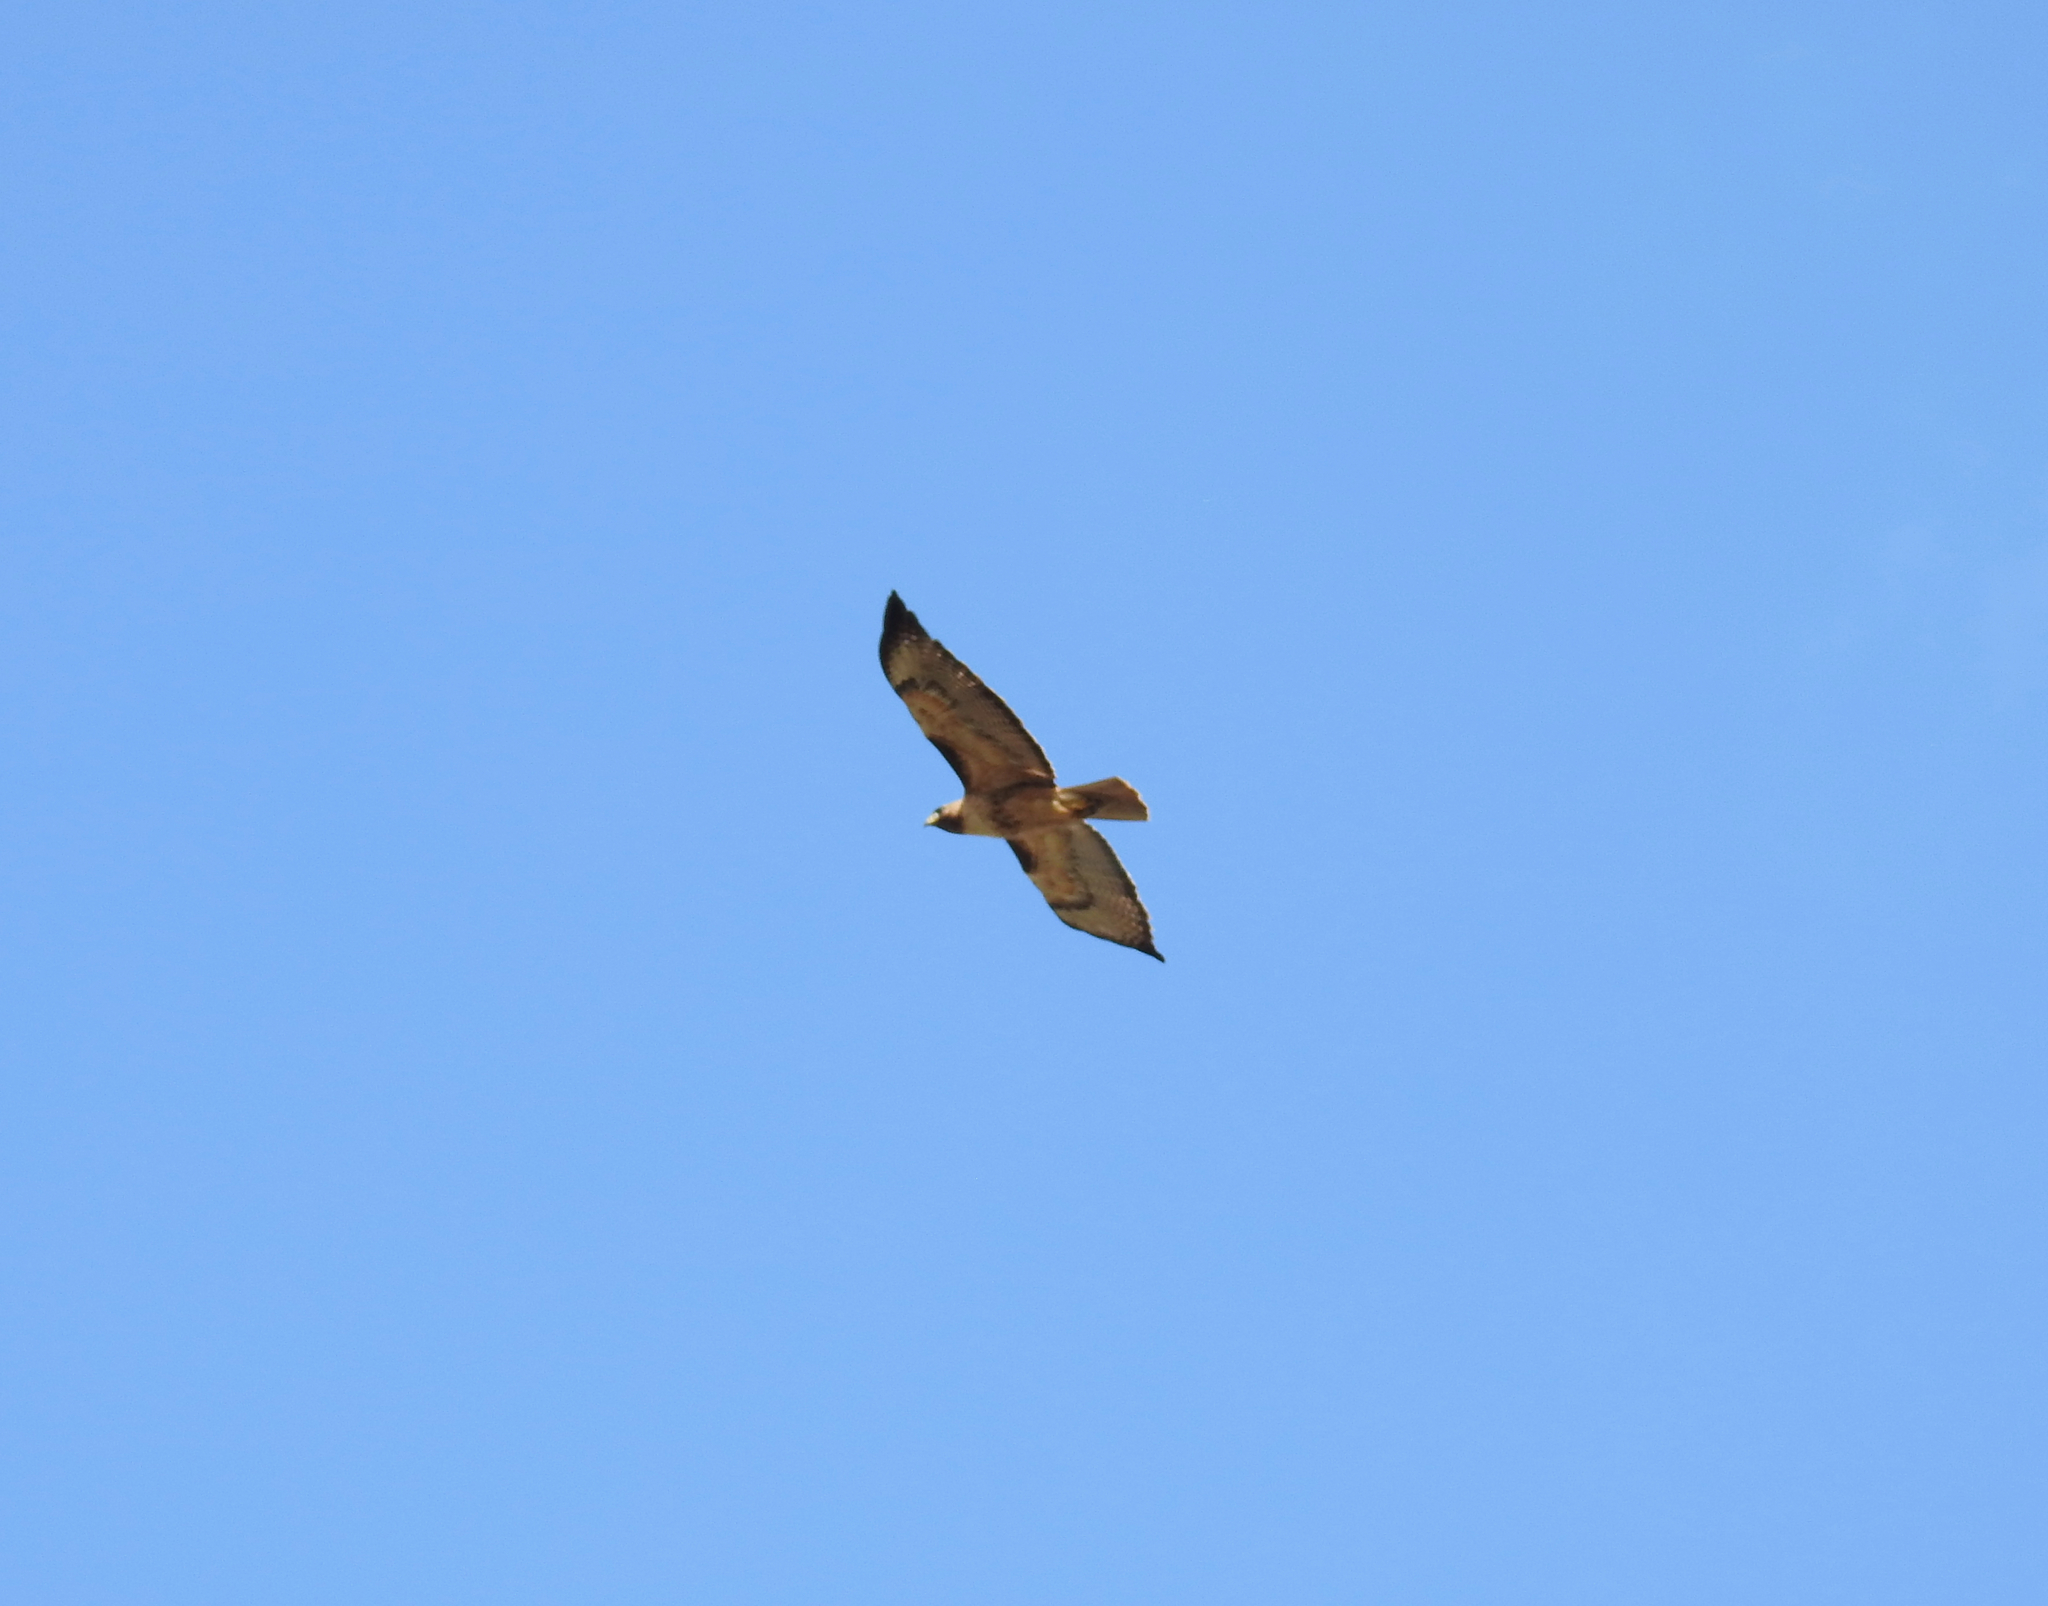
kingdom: Animalia
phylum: Chordata
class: Aves
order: Accipitriformes
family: Accipitridae
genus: Buteo
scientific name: Buteo jamaicensis
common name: Red-tailed hawk
